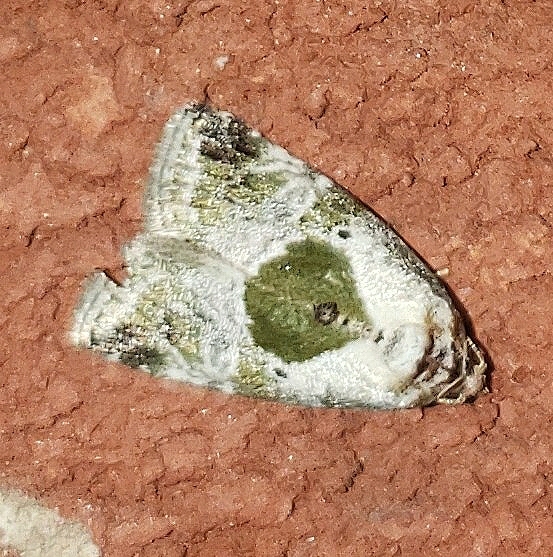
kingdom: Animalia
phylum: Arthropoda
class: Insecta
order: Lepidoptera
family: Noctuidae
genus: Maliattha
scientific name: Maliattha synochitis
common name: Black-dotted glyph
